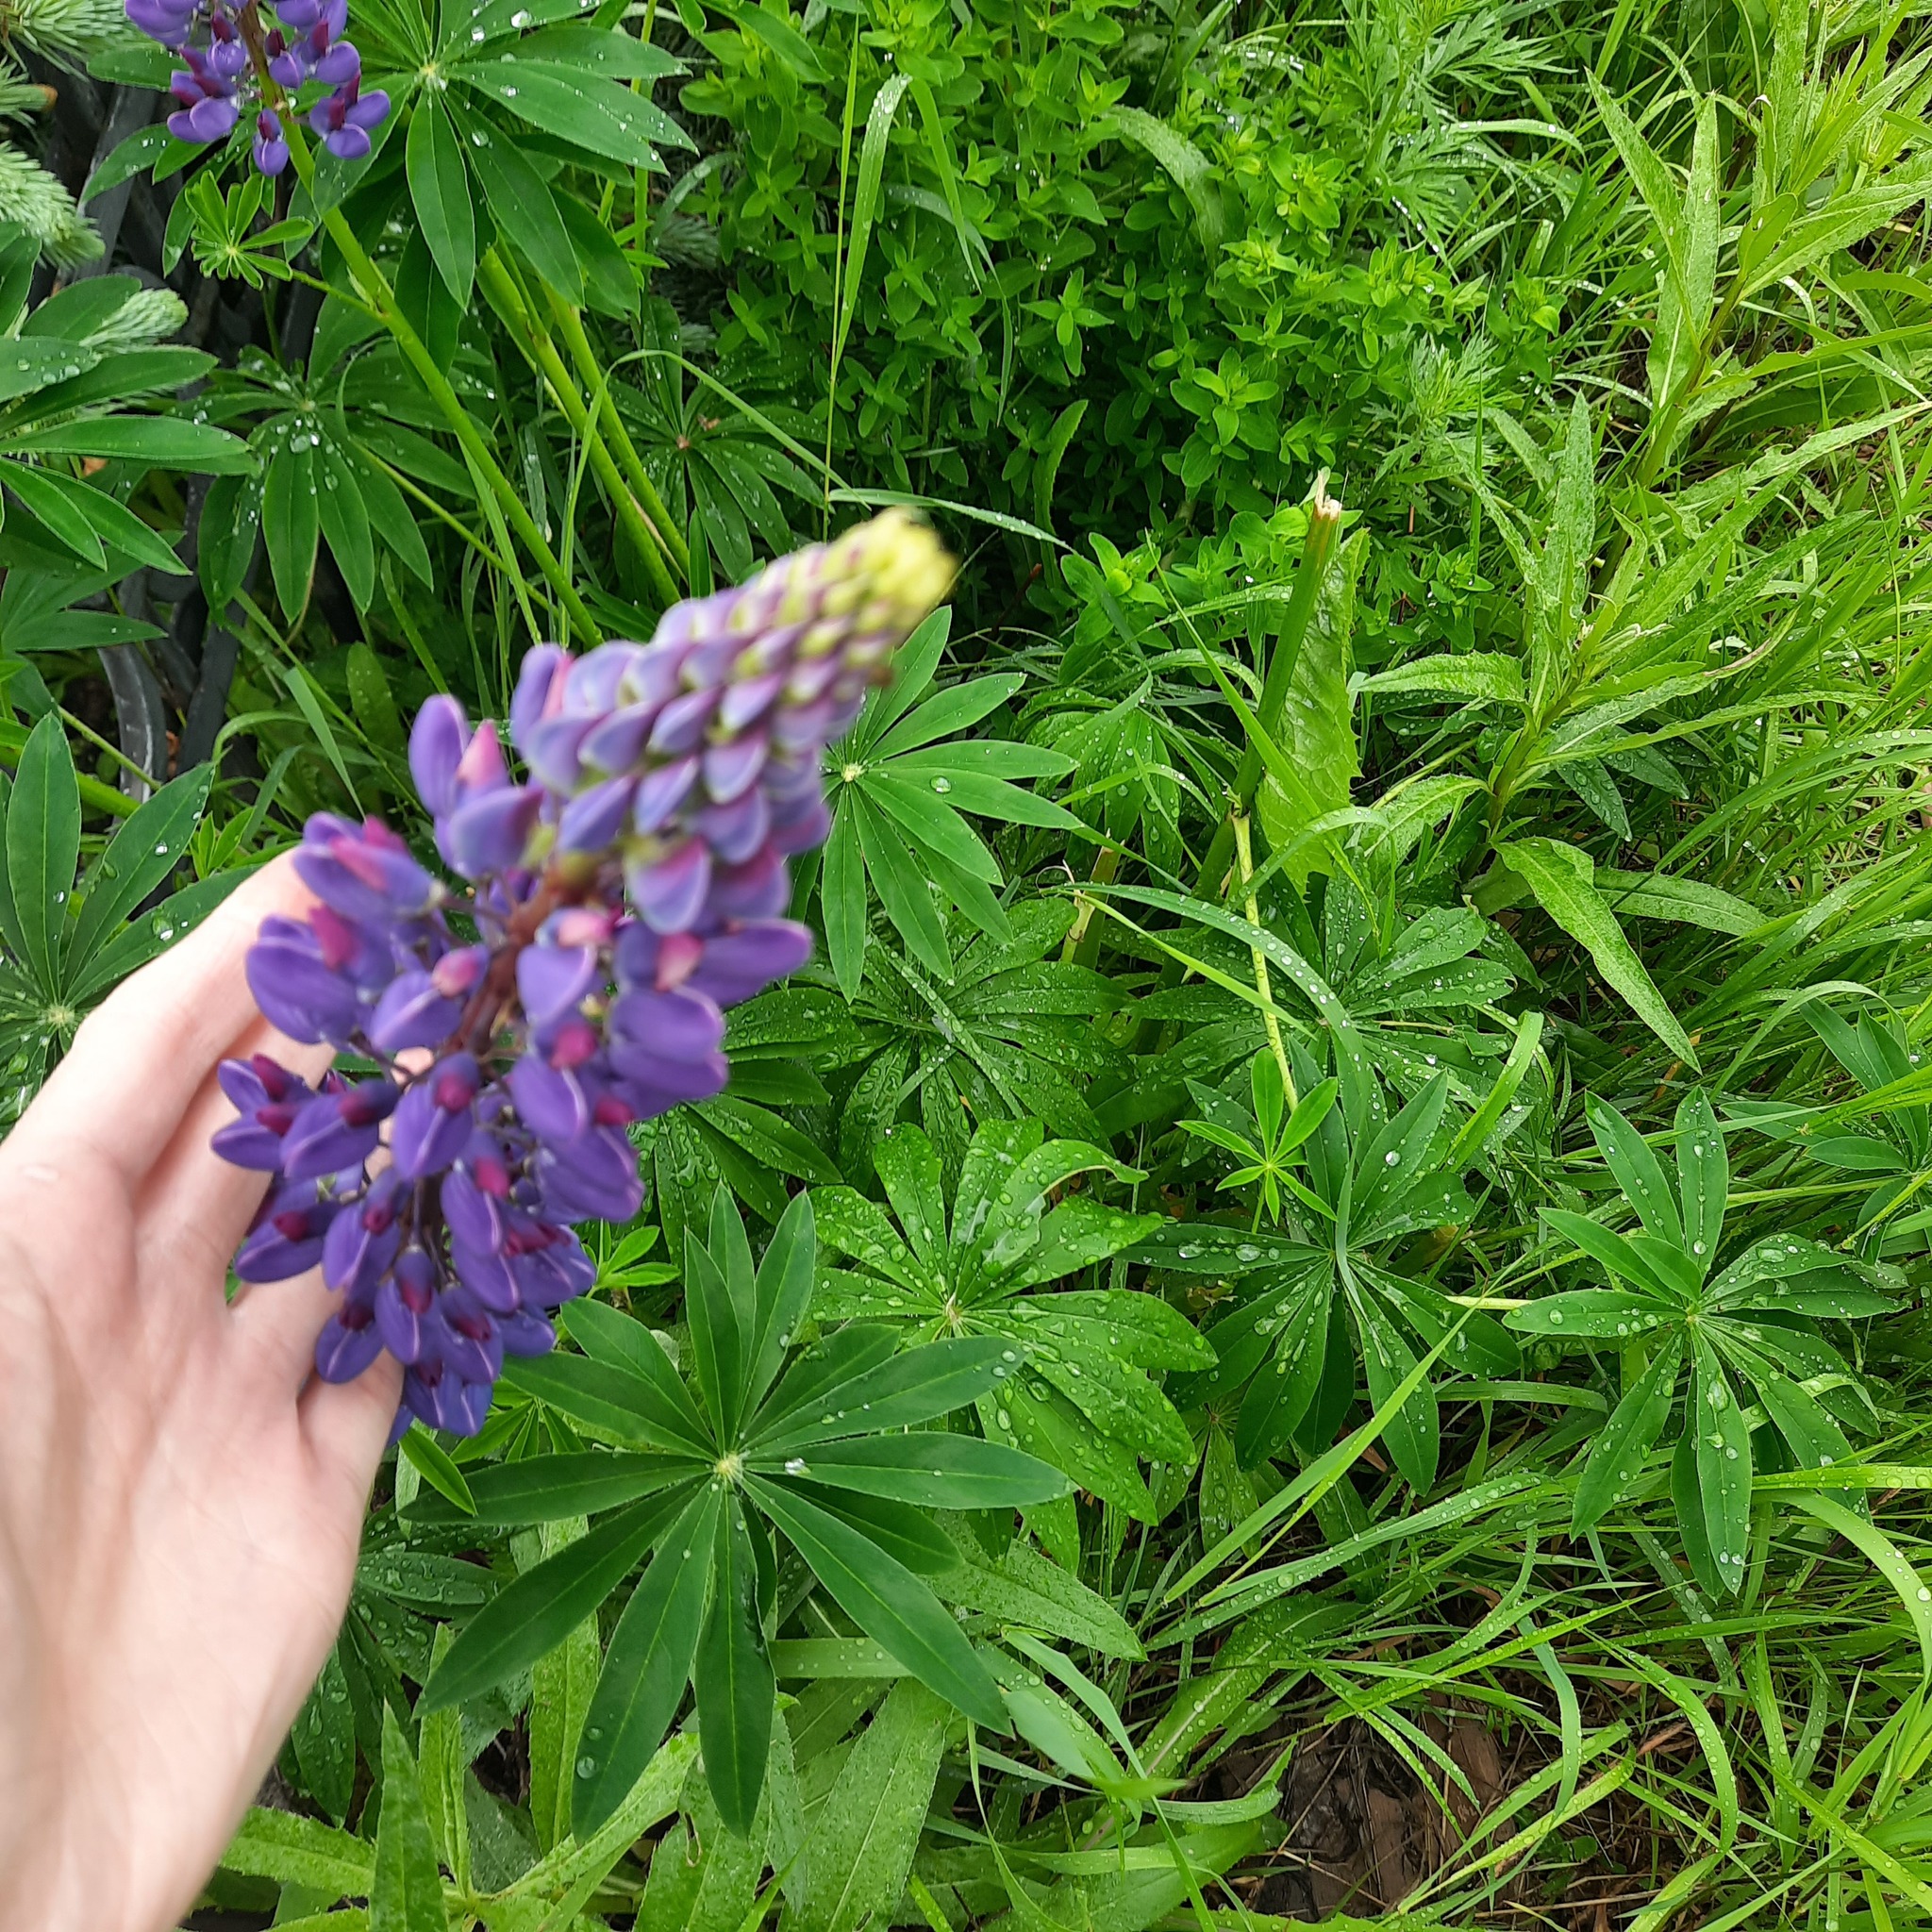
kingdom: Plantae
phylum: Tracheophyta
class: Magnoliopsida
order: Fabales
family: Fabaceae
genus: Lupinus
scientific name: Lupinus polyphyllus
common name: Garden lupin
